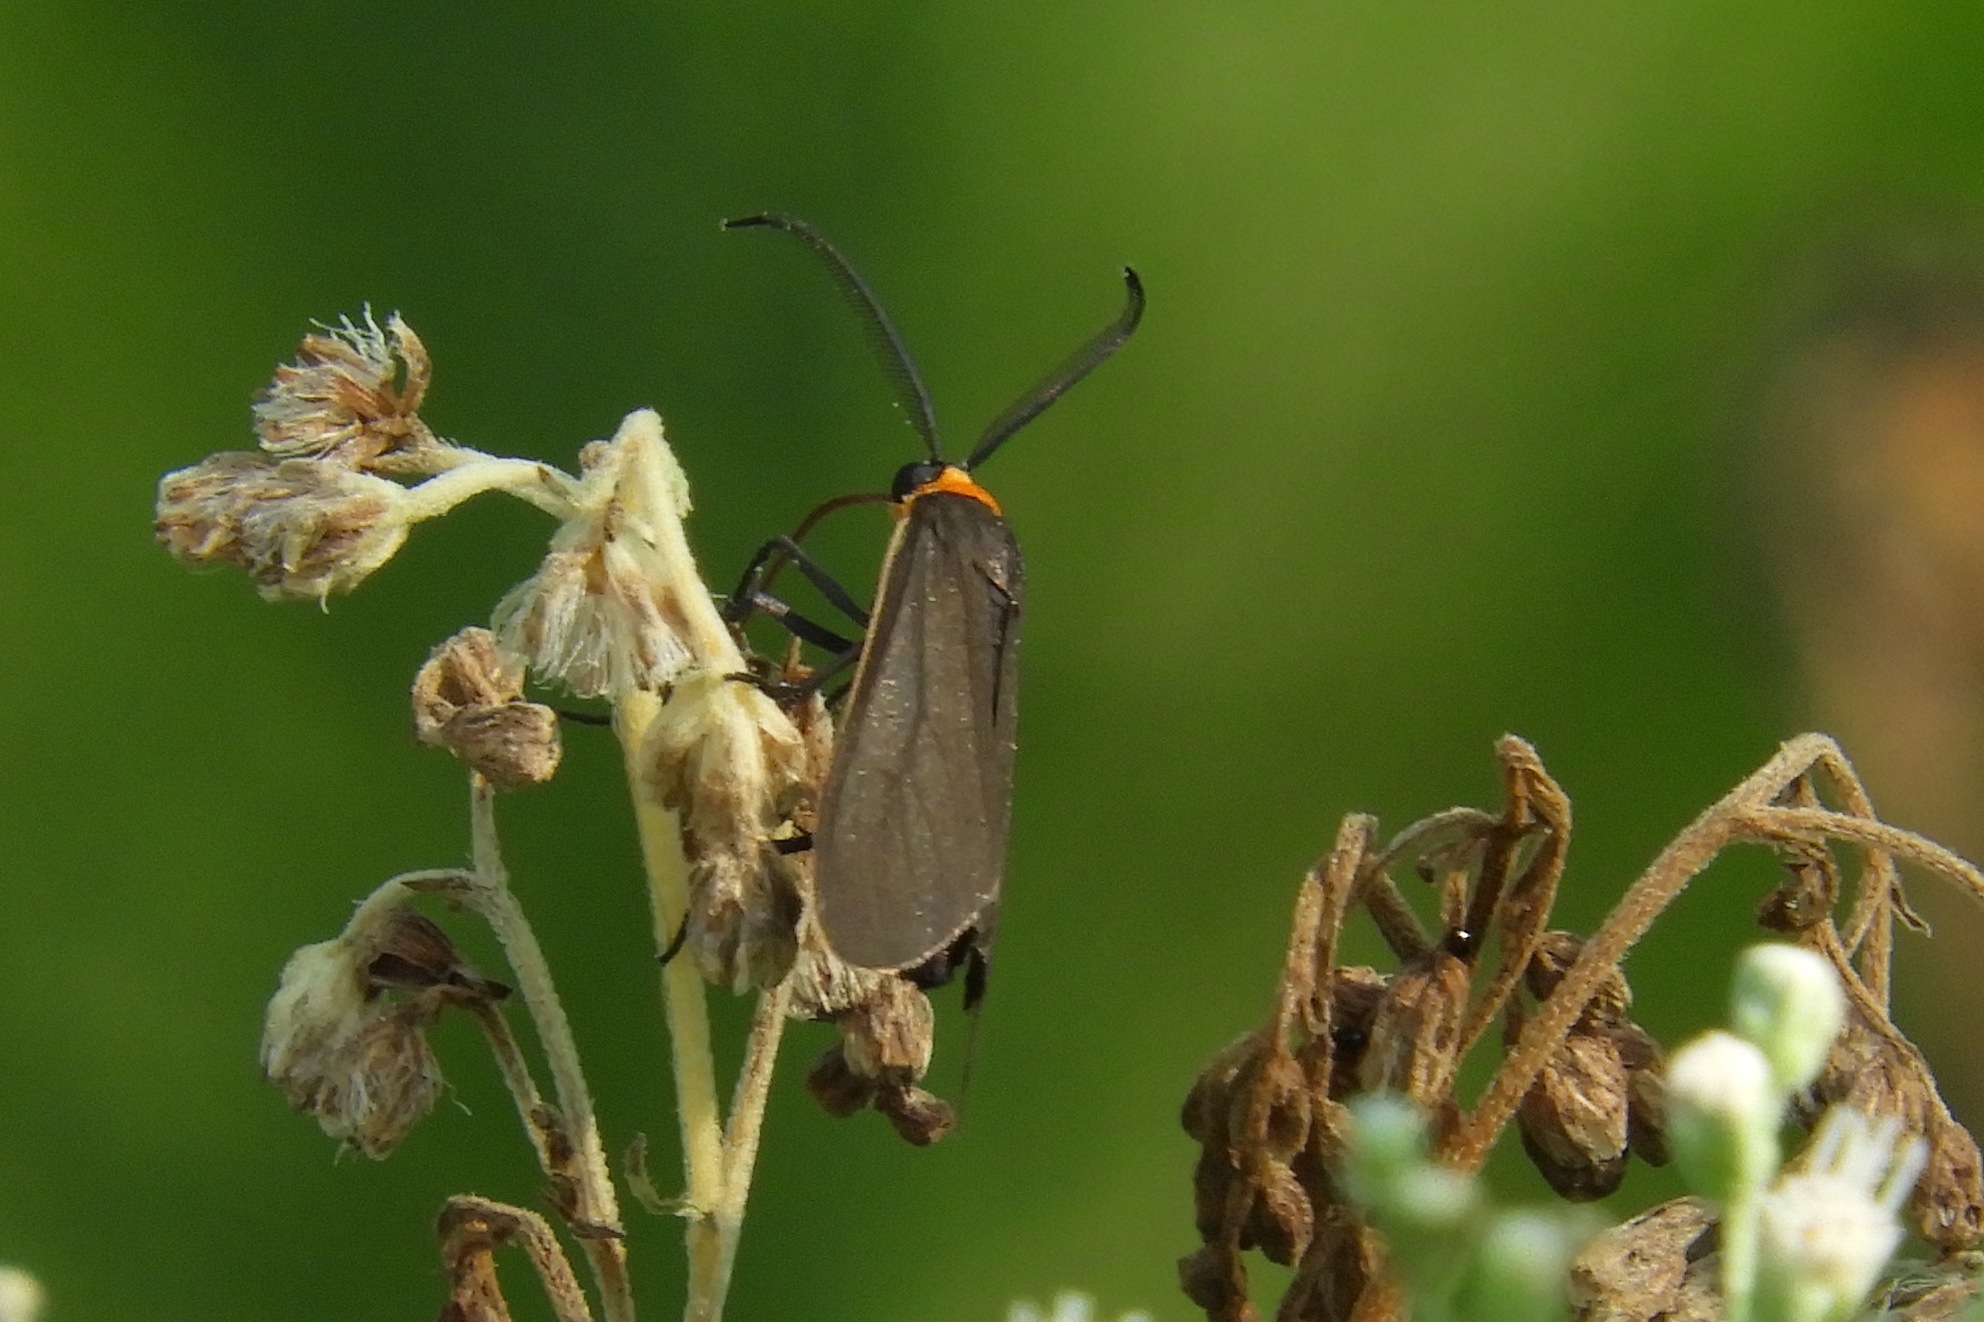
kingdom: Animalia
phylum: Arthropoda
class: Insecta
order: Lepidoptera
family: Erebidae
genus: Cisseps
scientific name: Cisseps fulvicollis
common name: Yellow-collared scape moth
